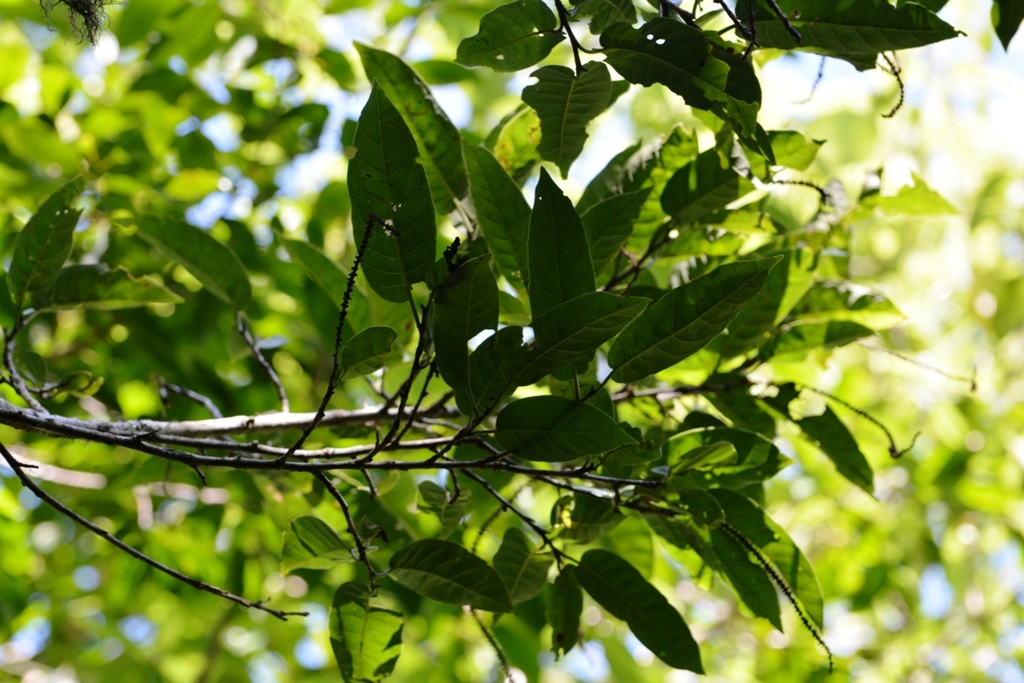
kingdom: Plantae
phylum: Tracheophyta
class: Magnoliopsida
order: Caryophyllales
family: Polygonaceae
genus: Coccoloba
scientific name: Coccoloba floresii
